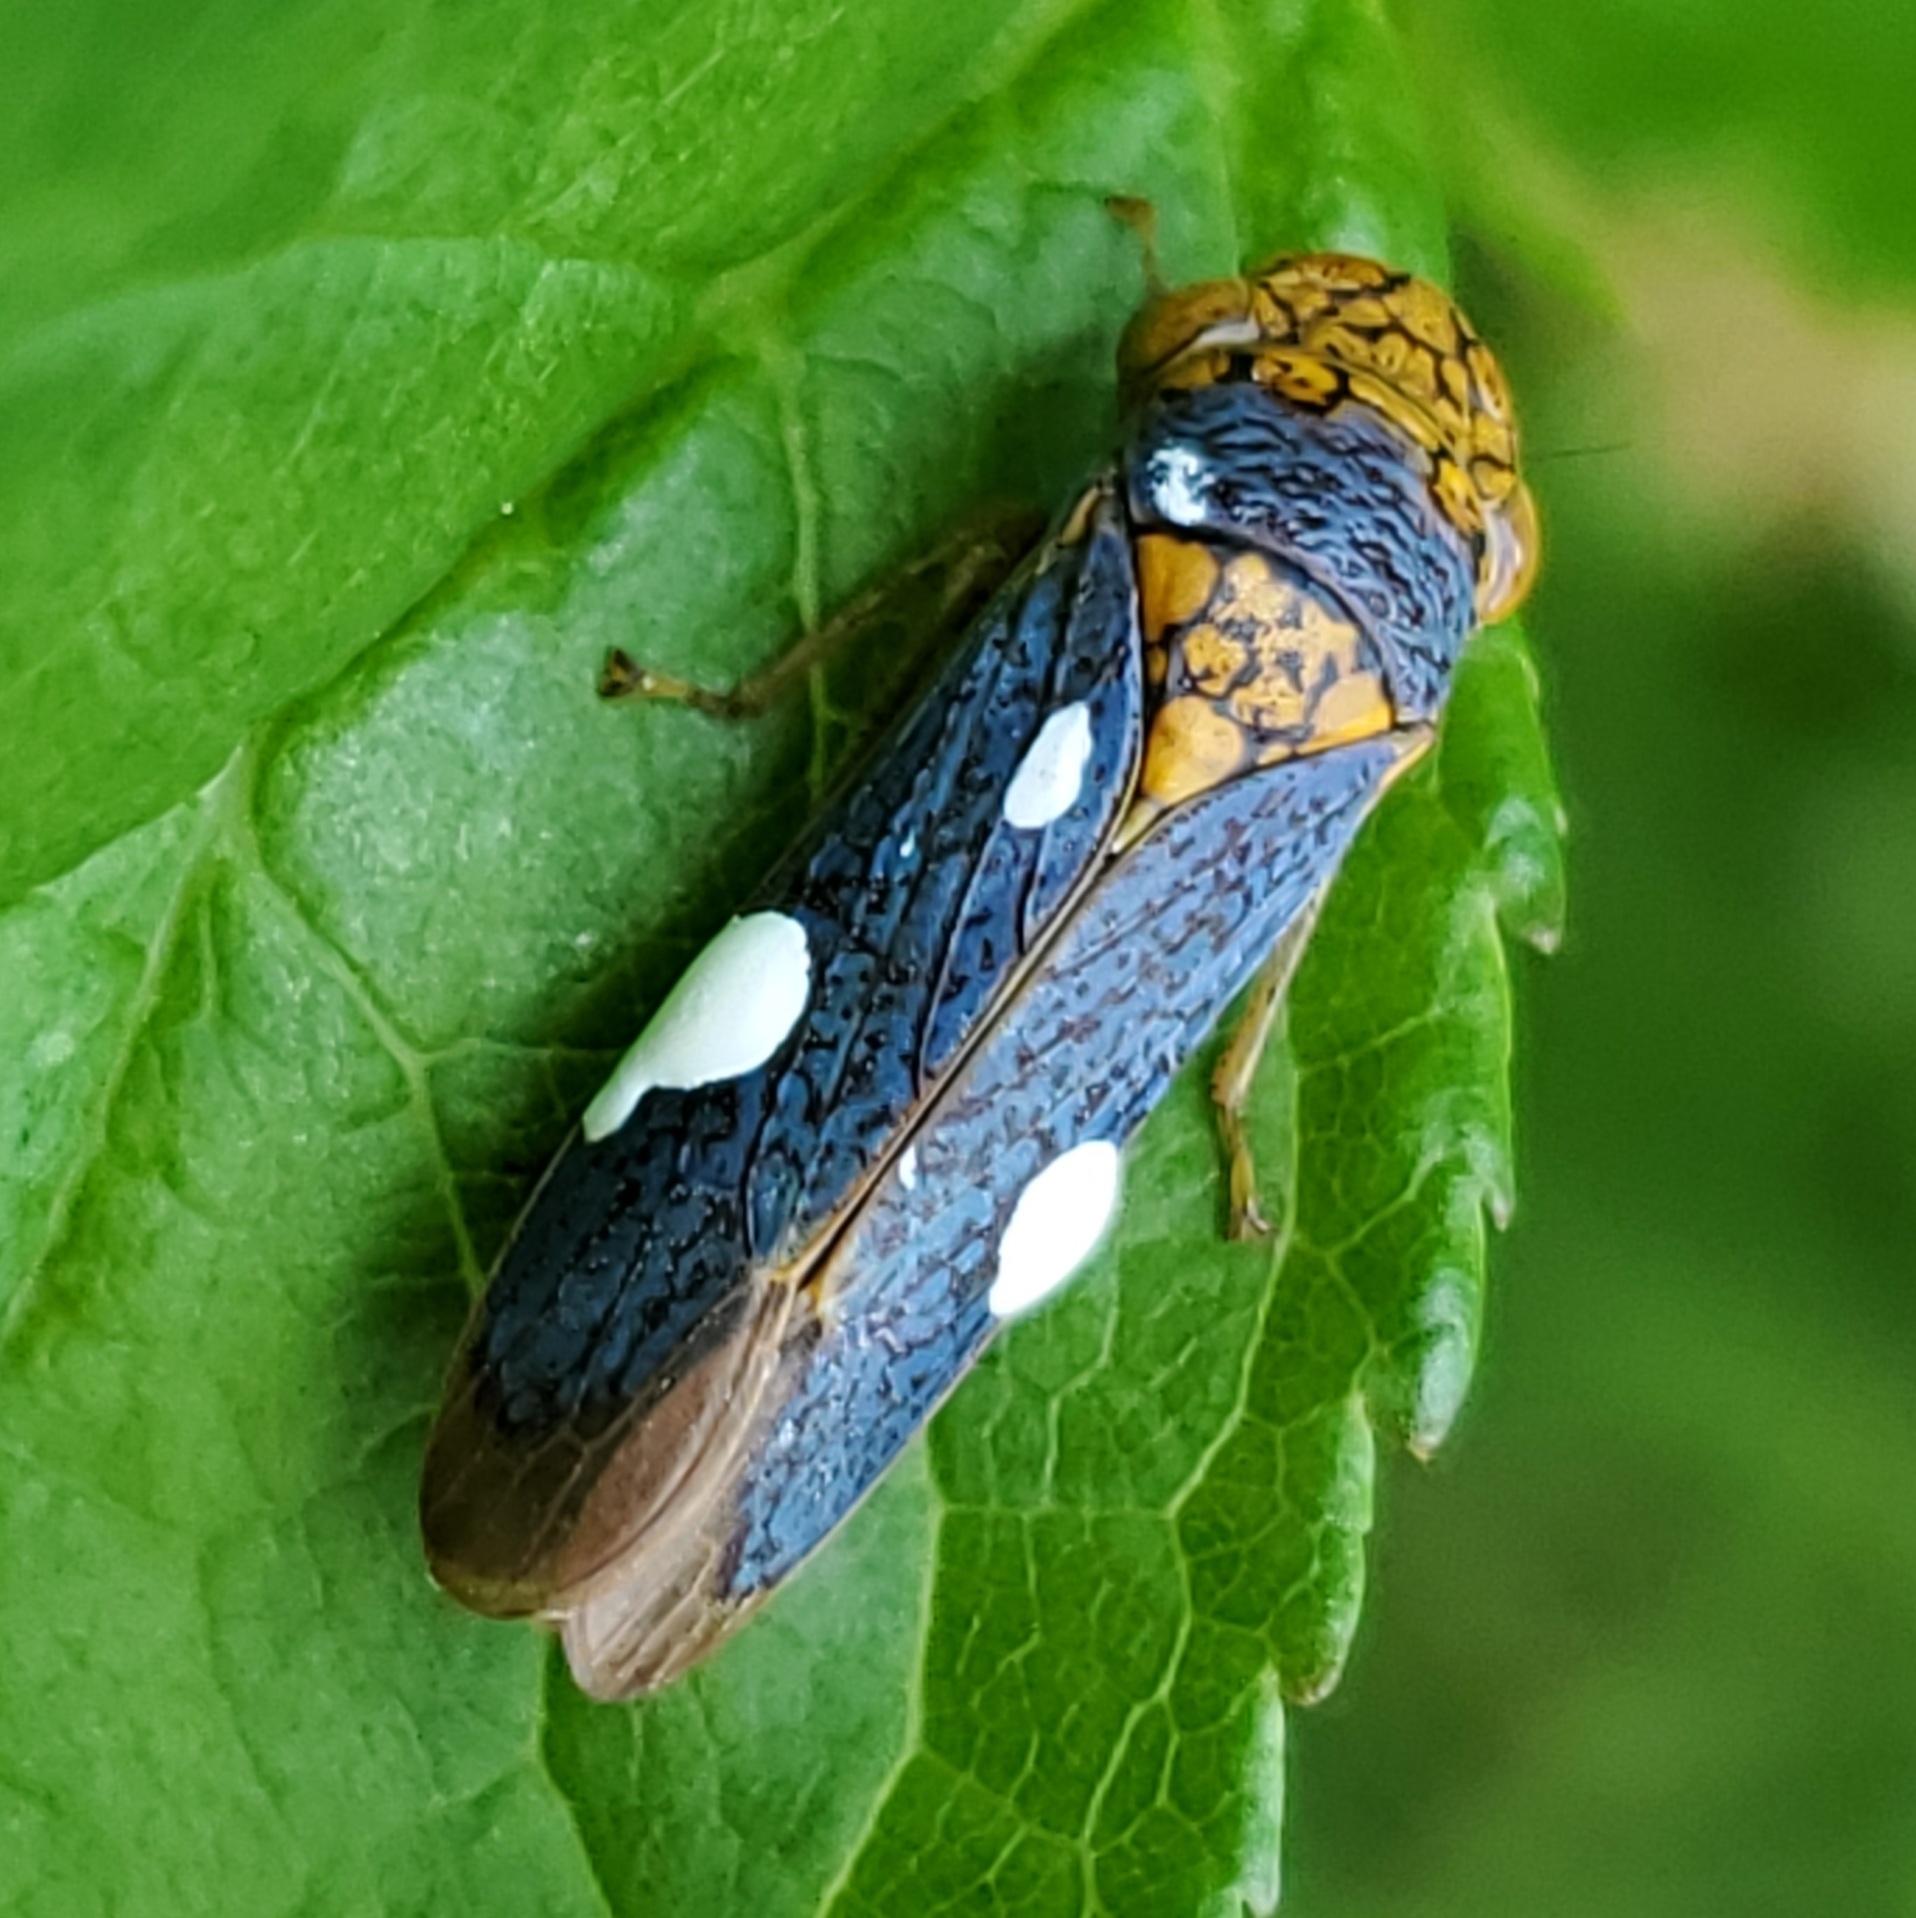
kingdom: Animalia
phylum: Arthropoda
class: Insecta
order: Hemiptera
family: Cicadellidae
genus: Oncometopia
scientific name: Oncometopia orbona
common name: Broad-headed sharpshooter
